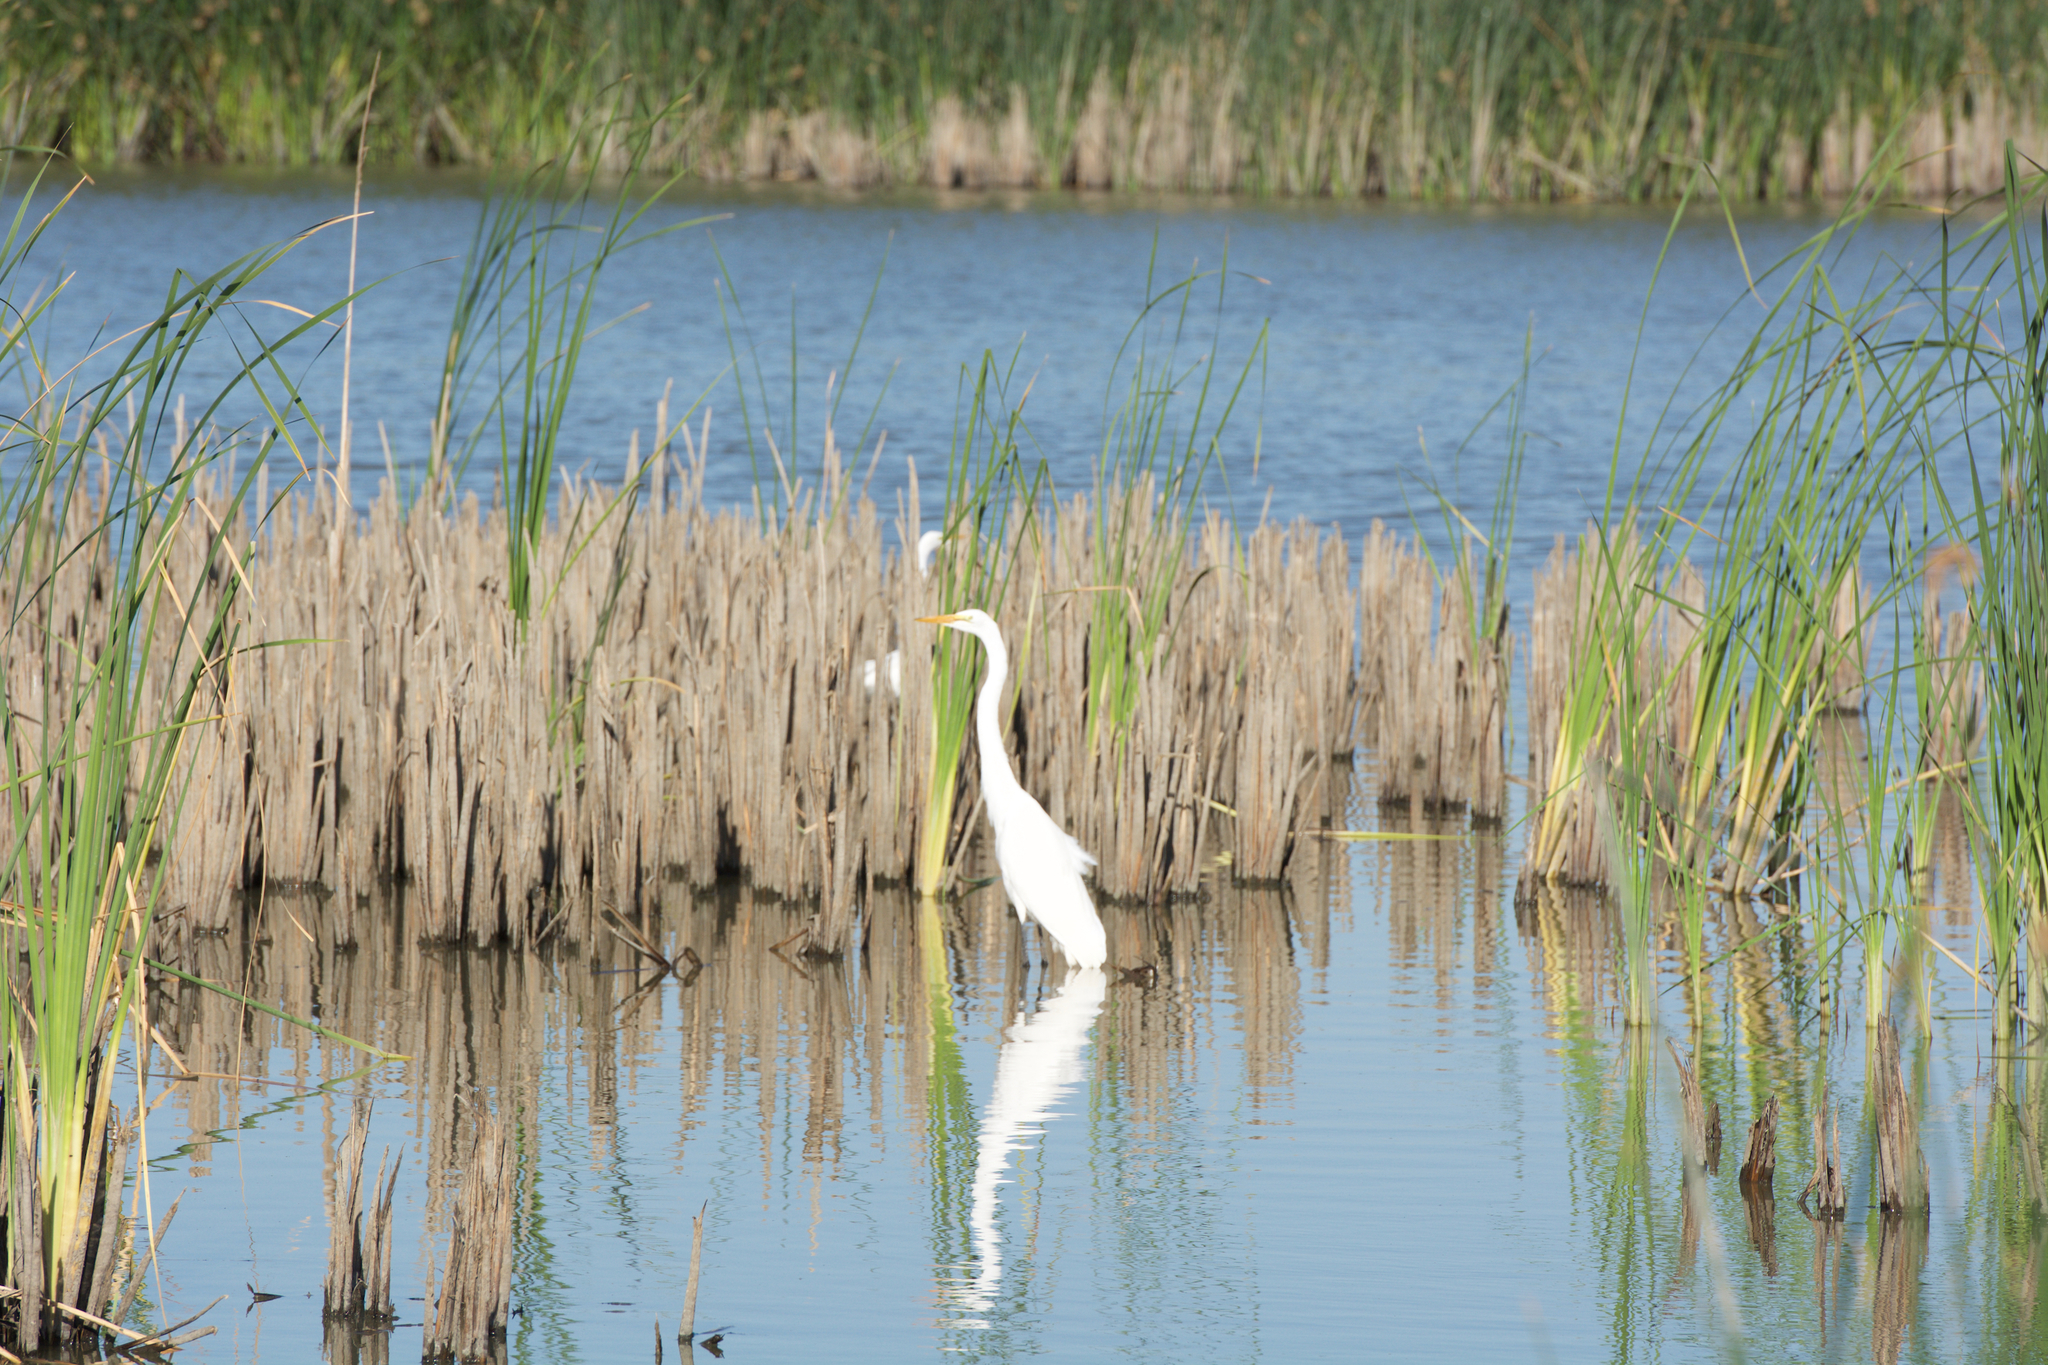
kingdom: Animalia
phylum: Chordata
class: Aves
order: Pelecaniformes
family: Ardeidae
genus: Ardea
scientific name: Ardea alba
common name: Great egret
